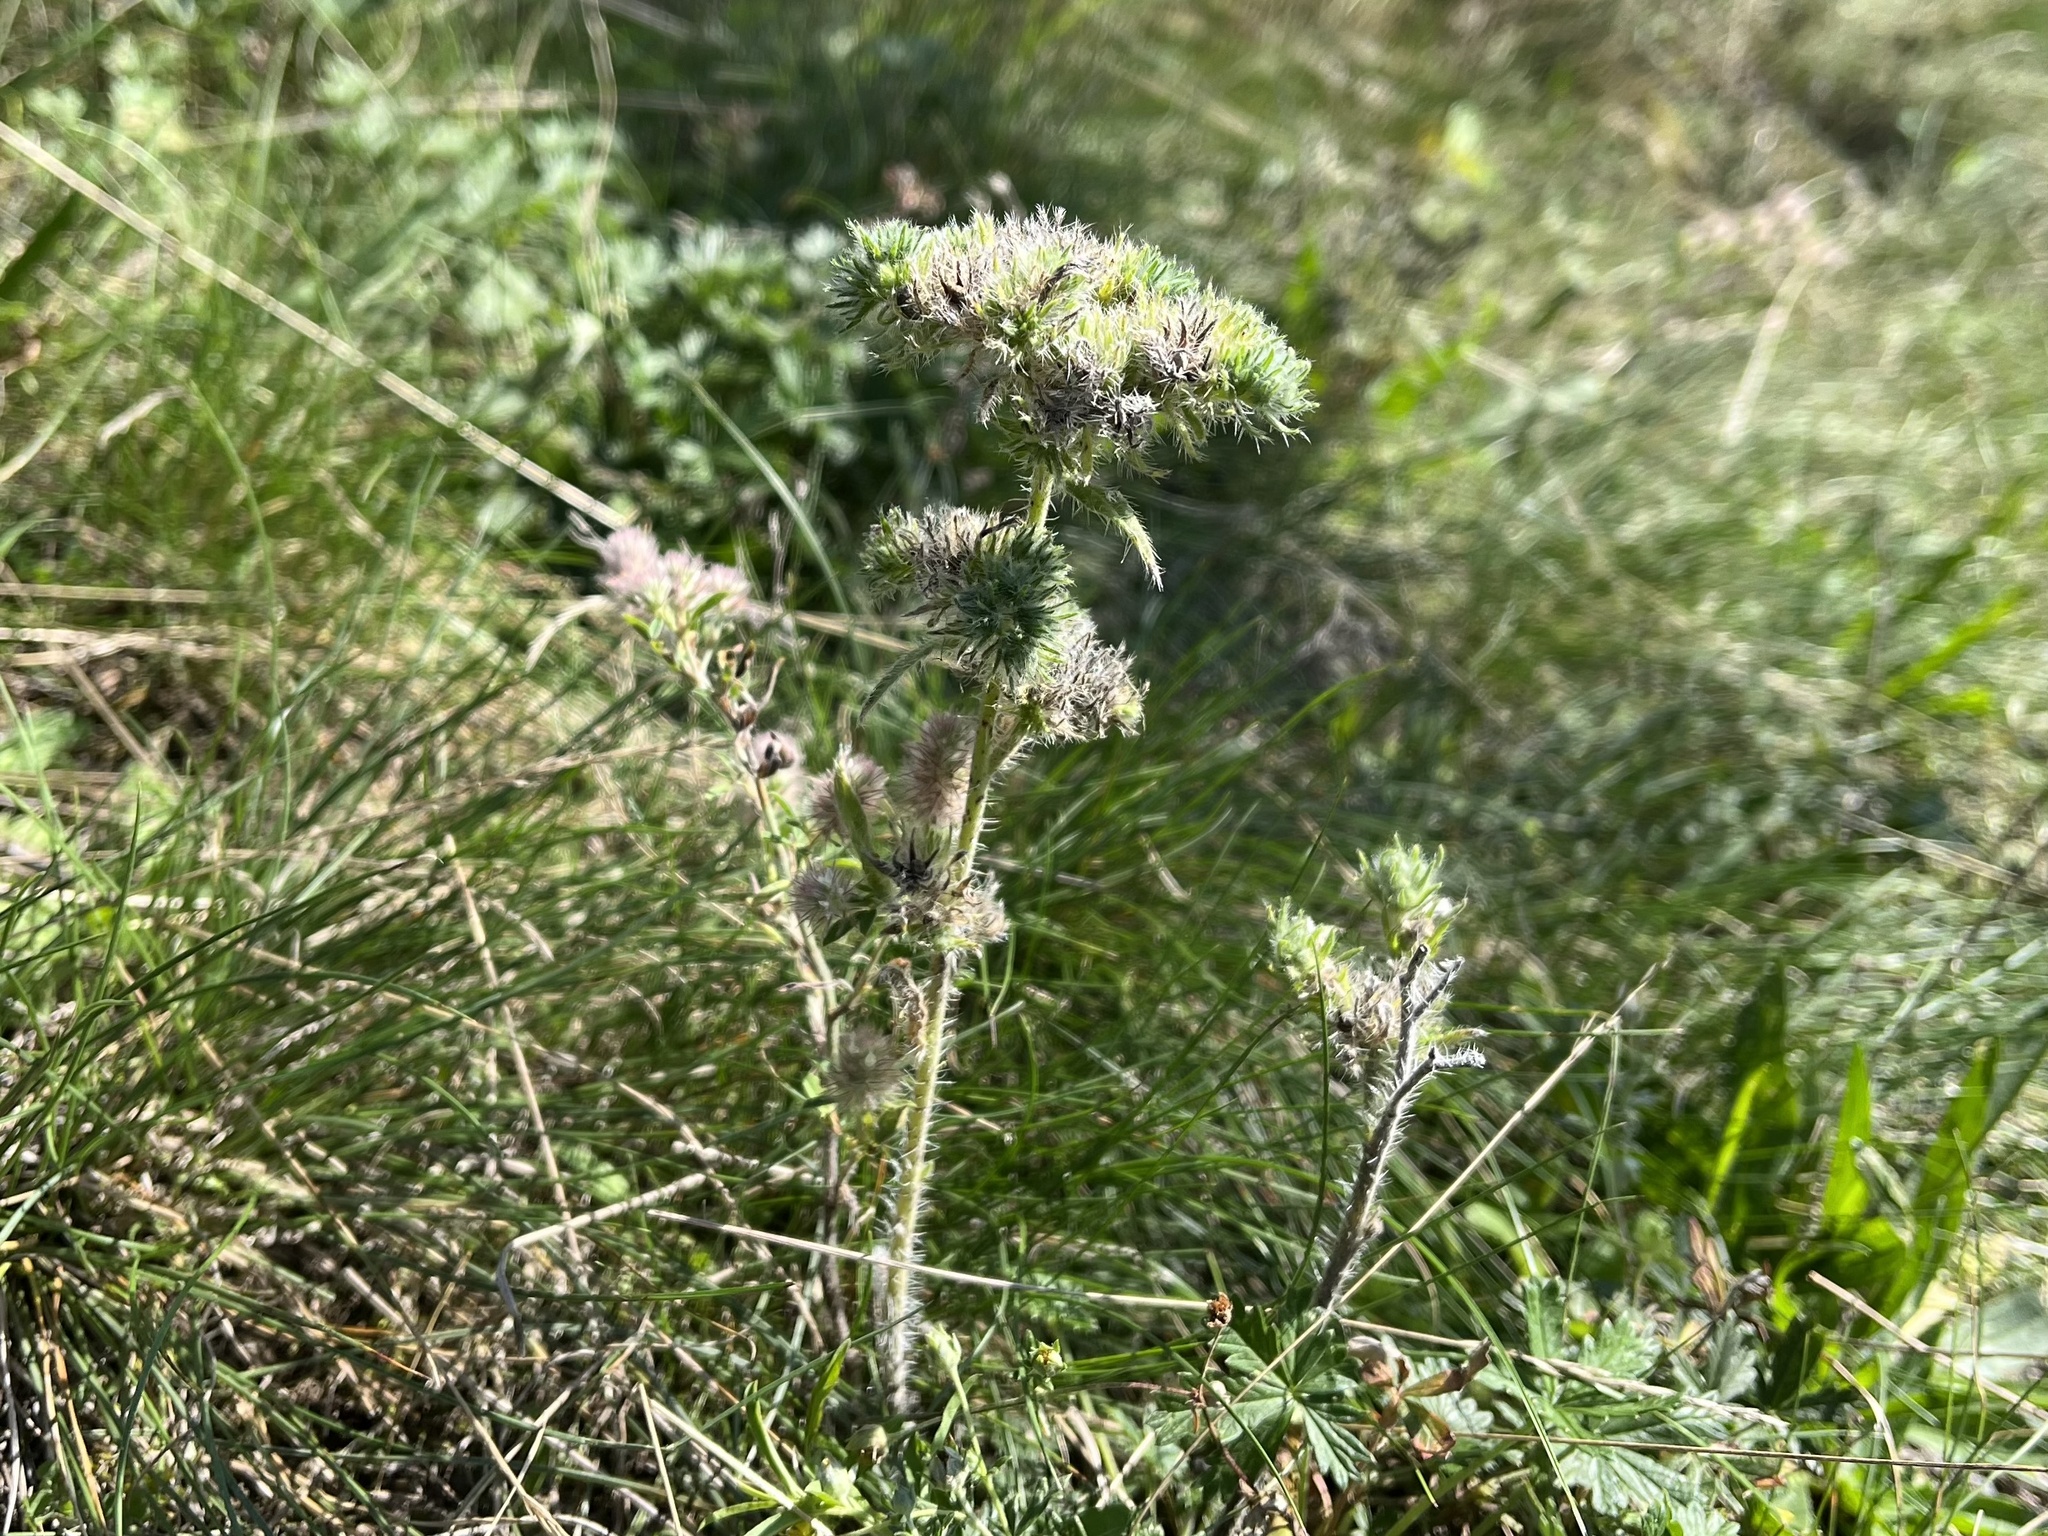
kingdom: Animalia
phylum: Arthropoda
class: Arachnida
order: Trombidiformes
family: Eriophyidae
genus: Aceria
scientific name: Aceria echii
